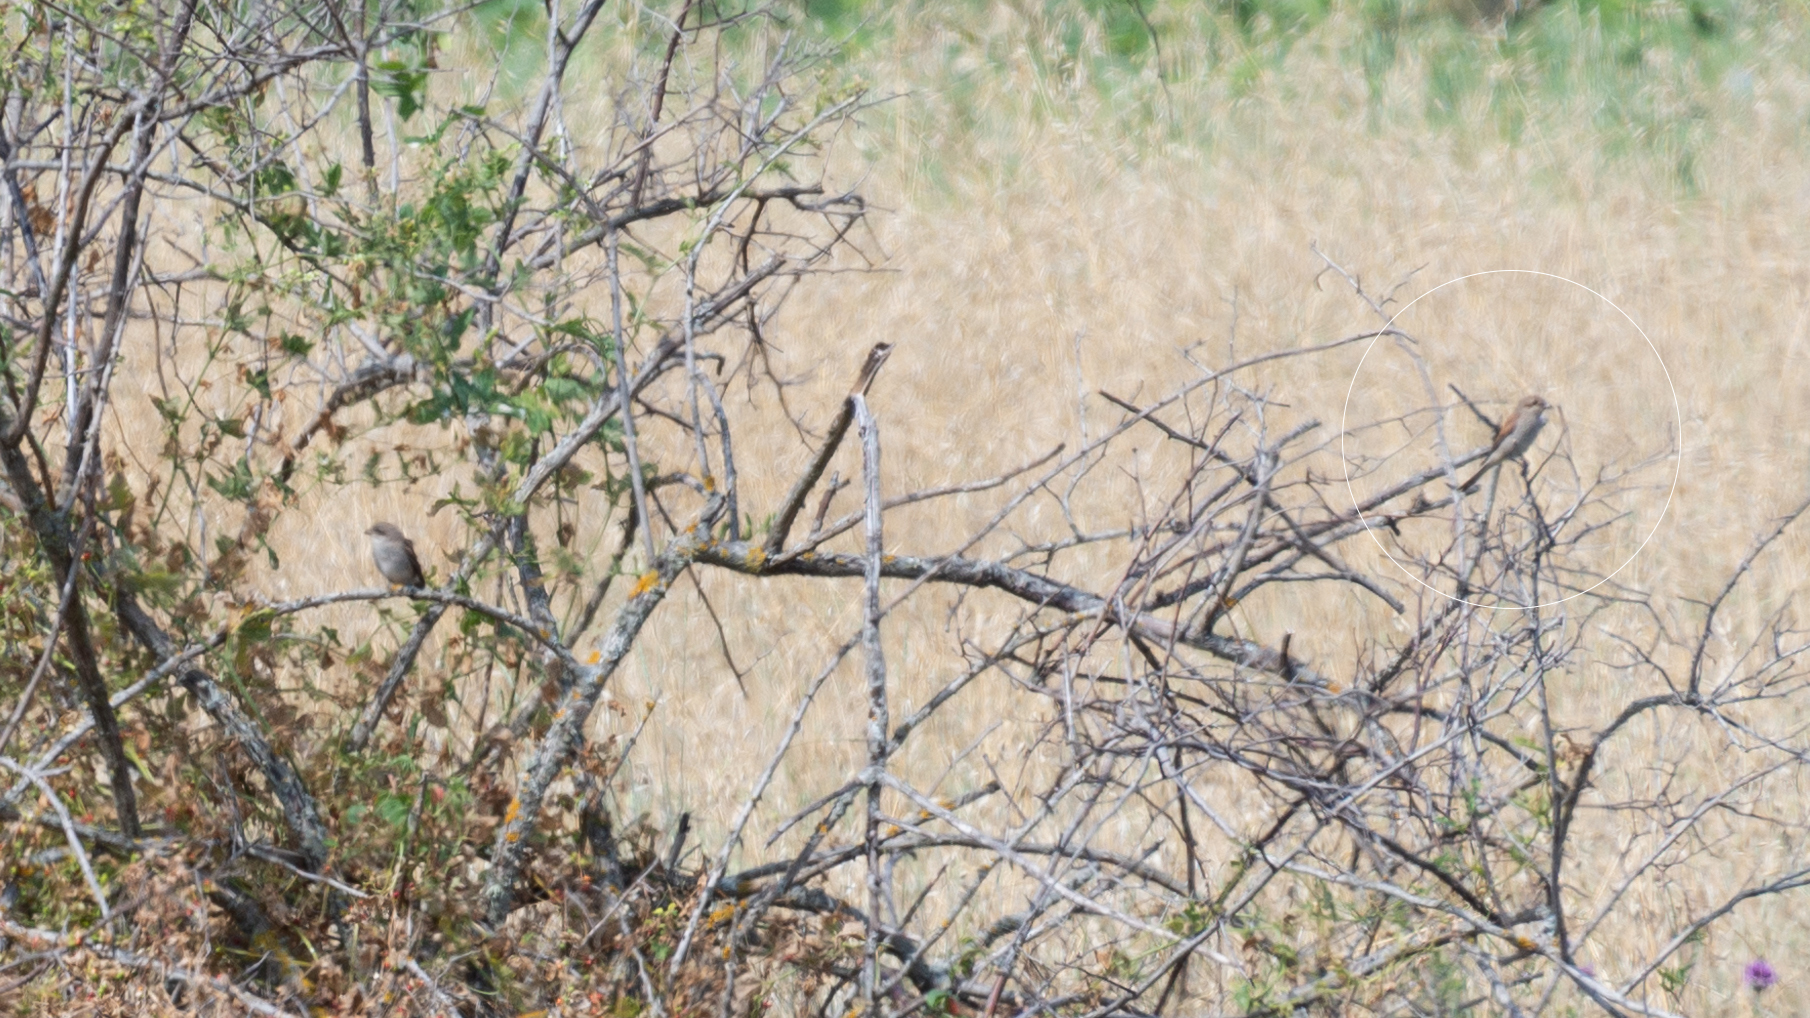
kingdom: Animalia
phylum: Chordata
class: Aves
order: Passeriformes
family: Laniidae
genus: Lanius
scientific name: Lanius collurio
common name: Red-backed shrike
